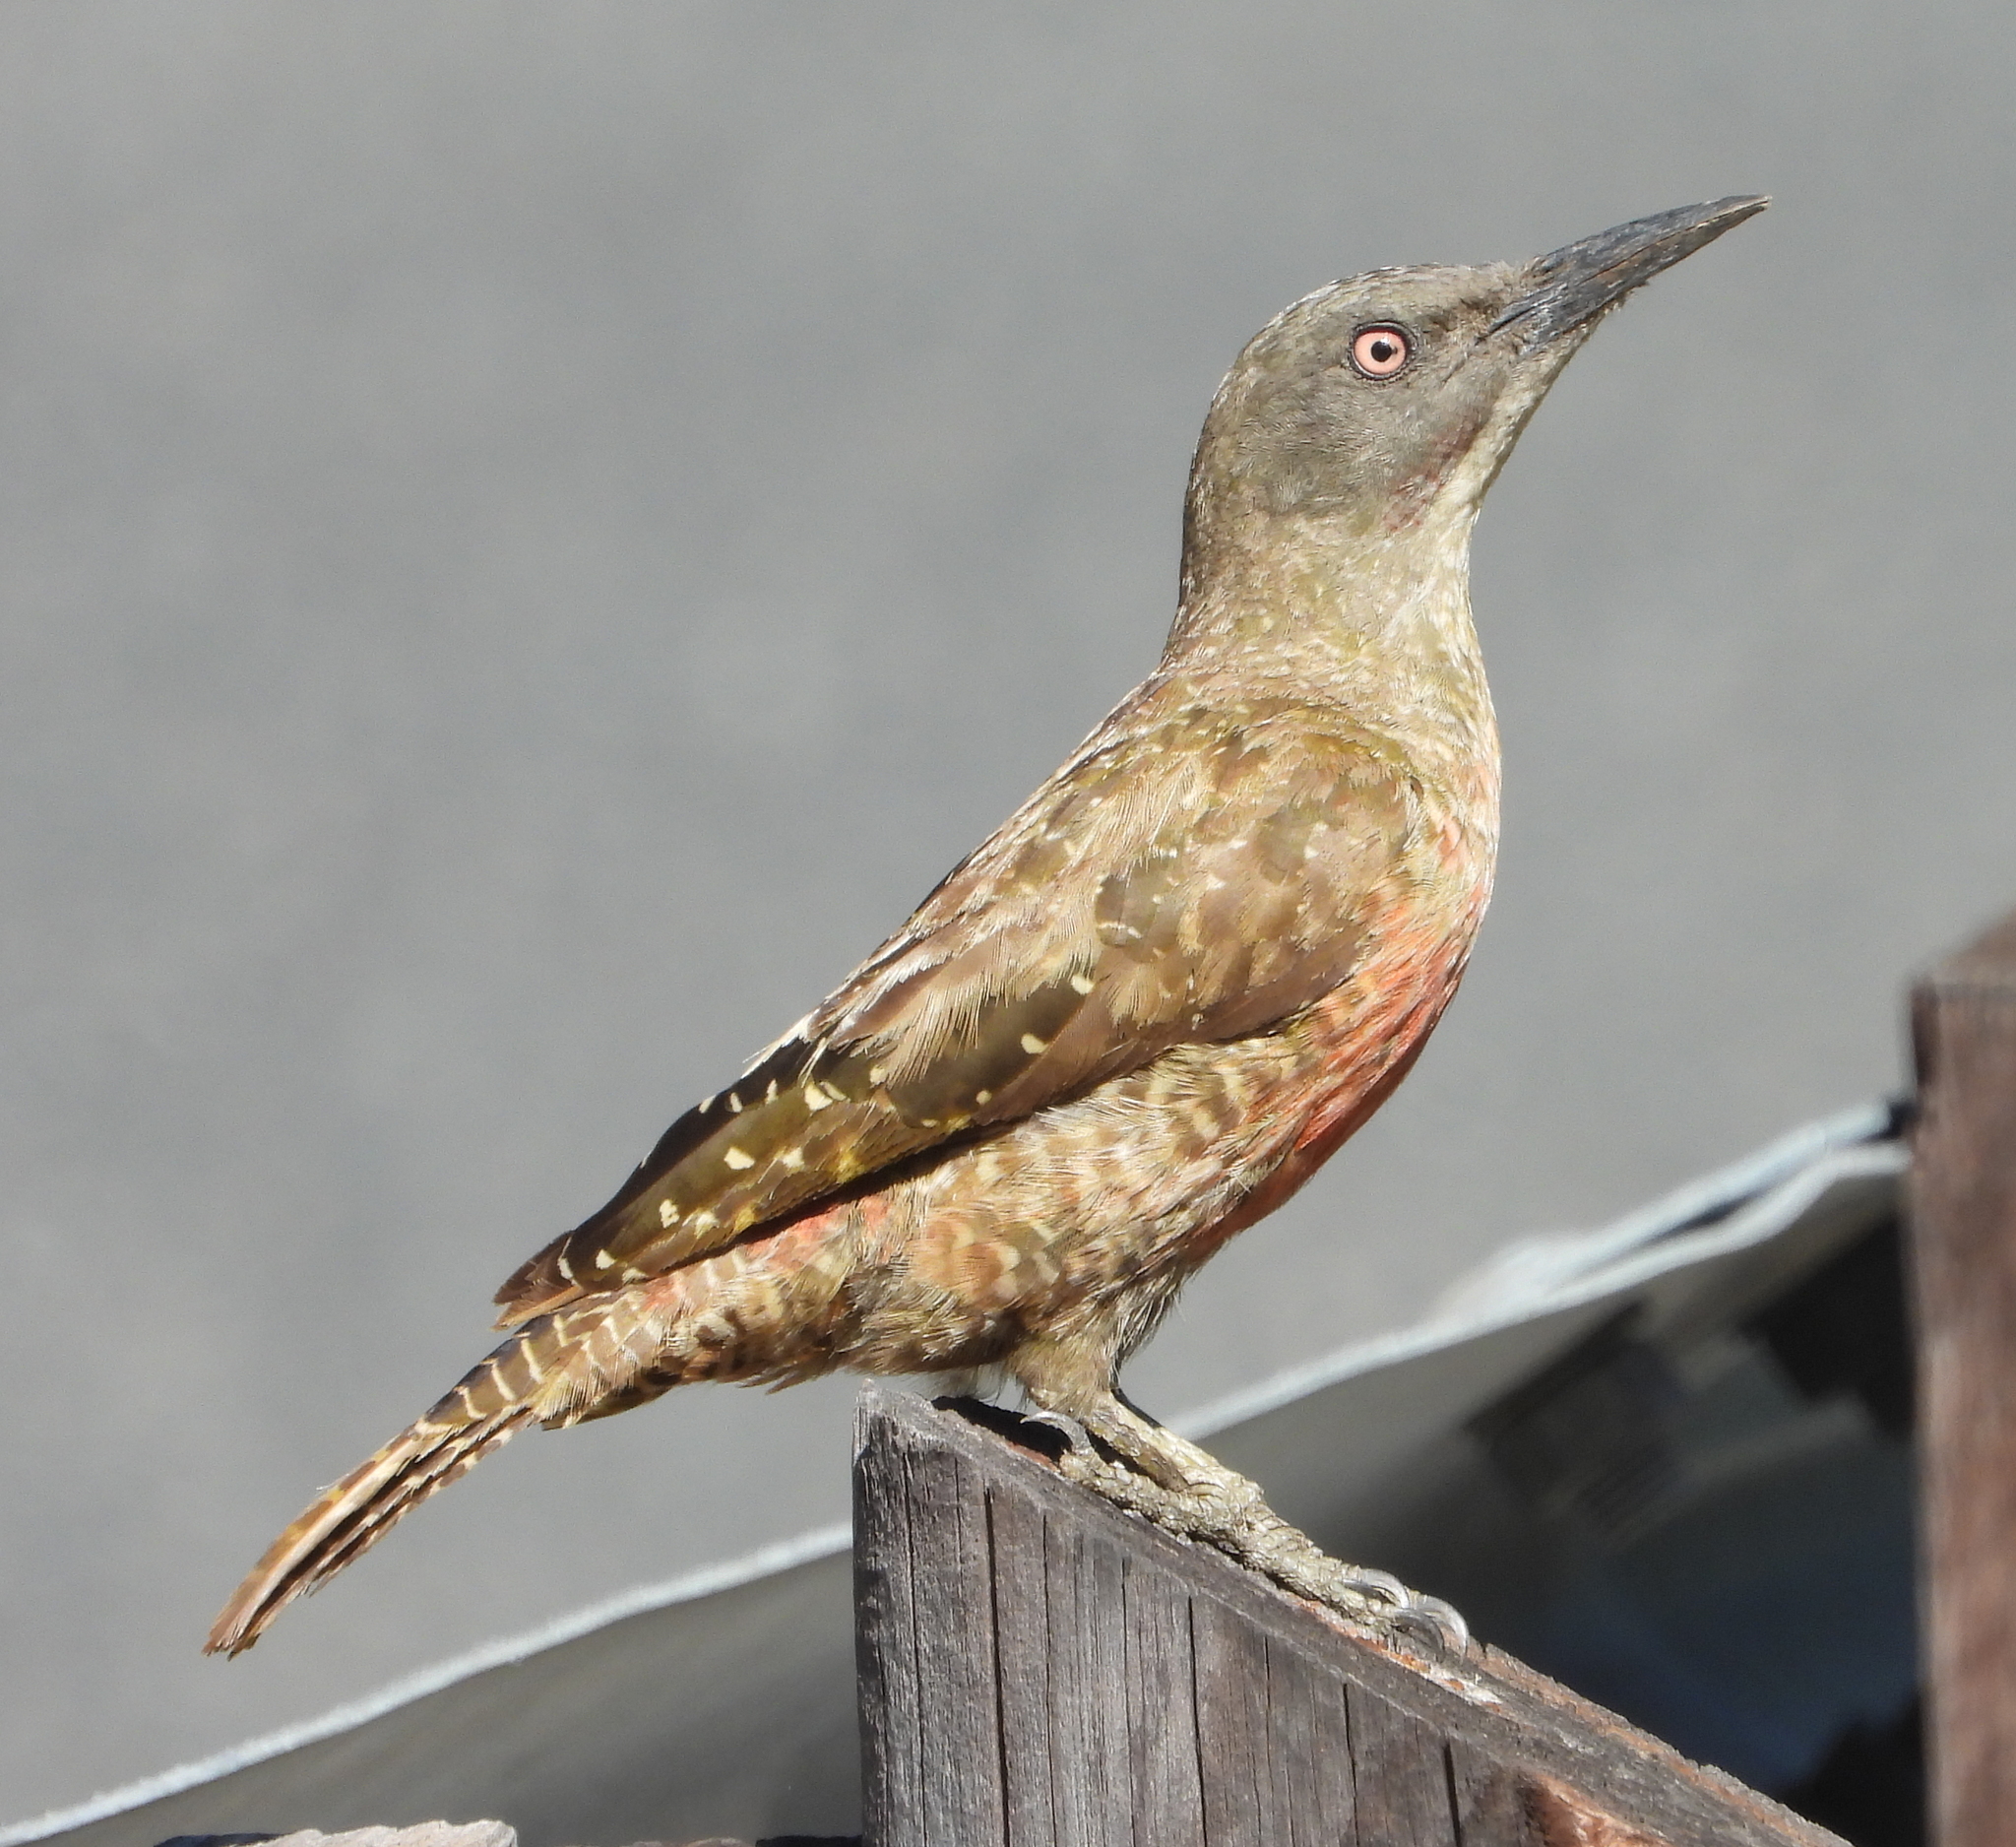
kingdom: Animalia
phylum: Chordata
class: Aves
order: Piciformes
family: Picidae
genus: Geocolaptes
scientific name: Geocolaptes olivaceus
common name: Ground woodpecker
